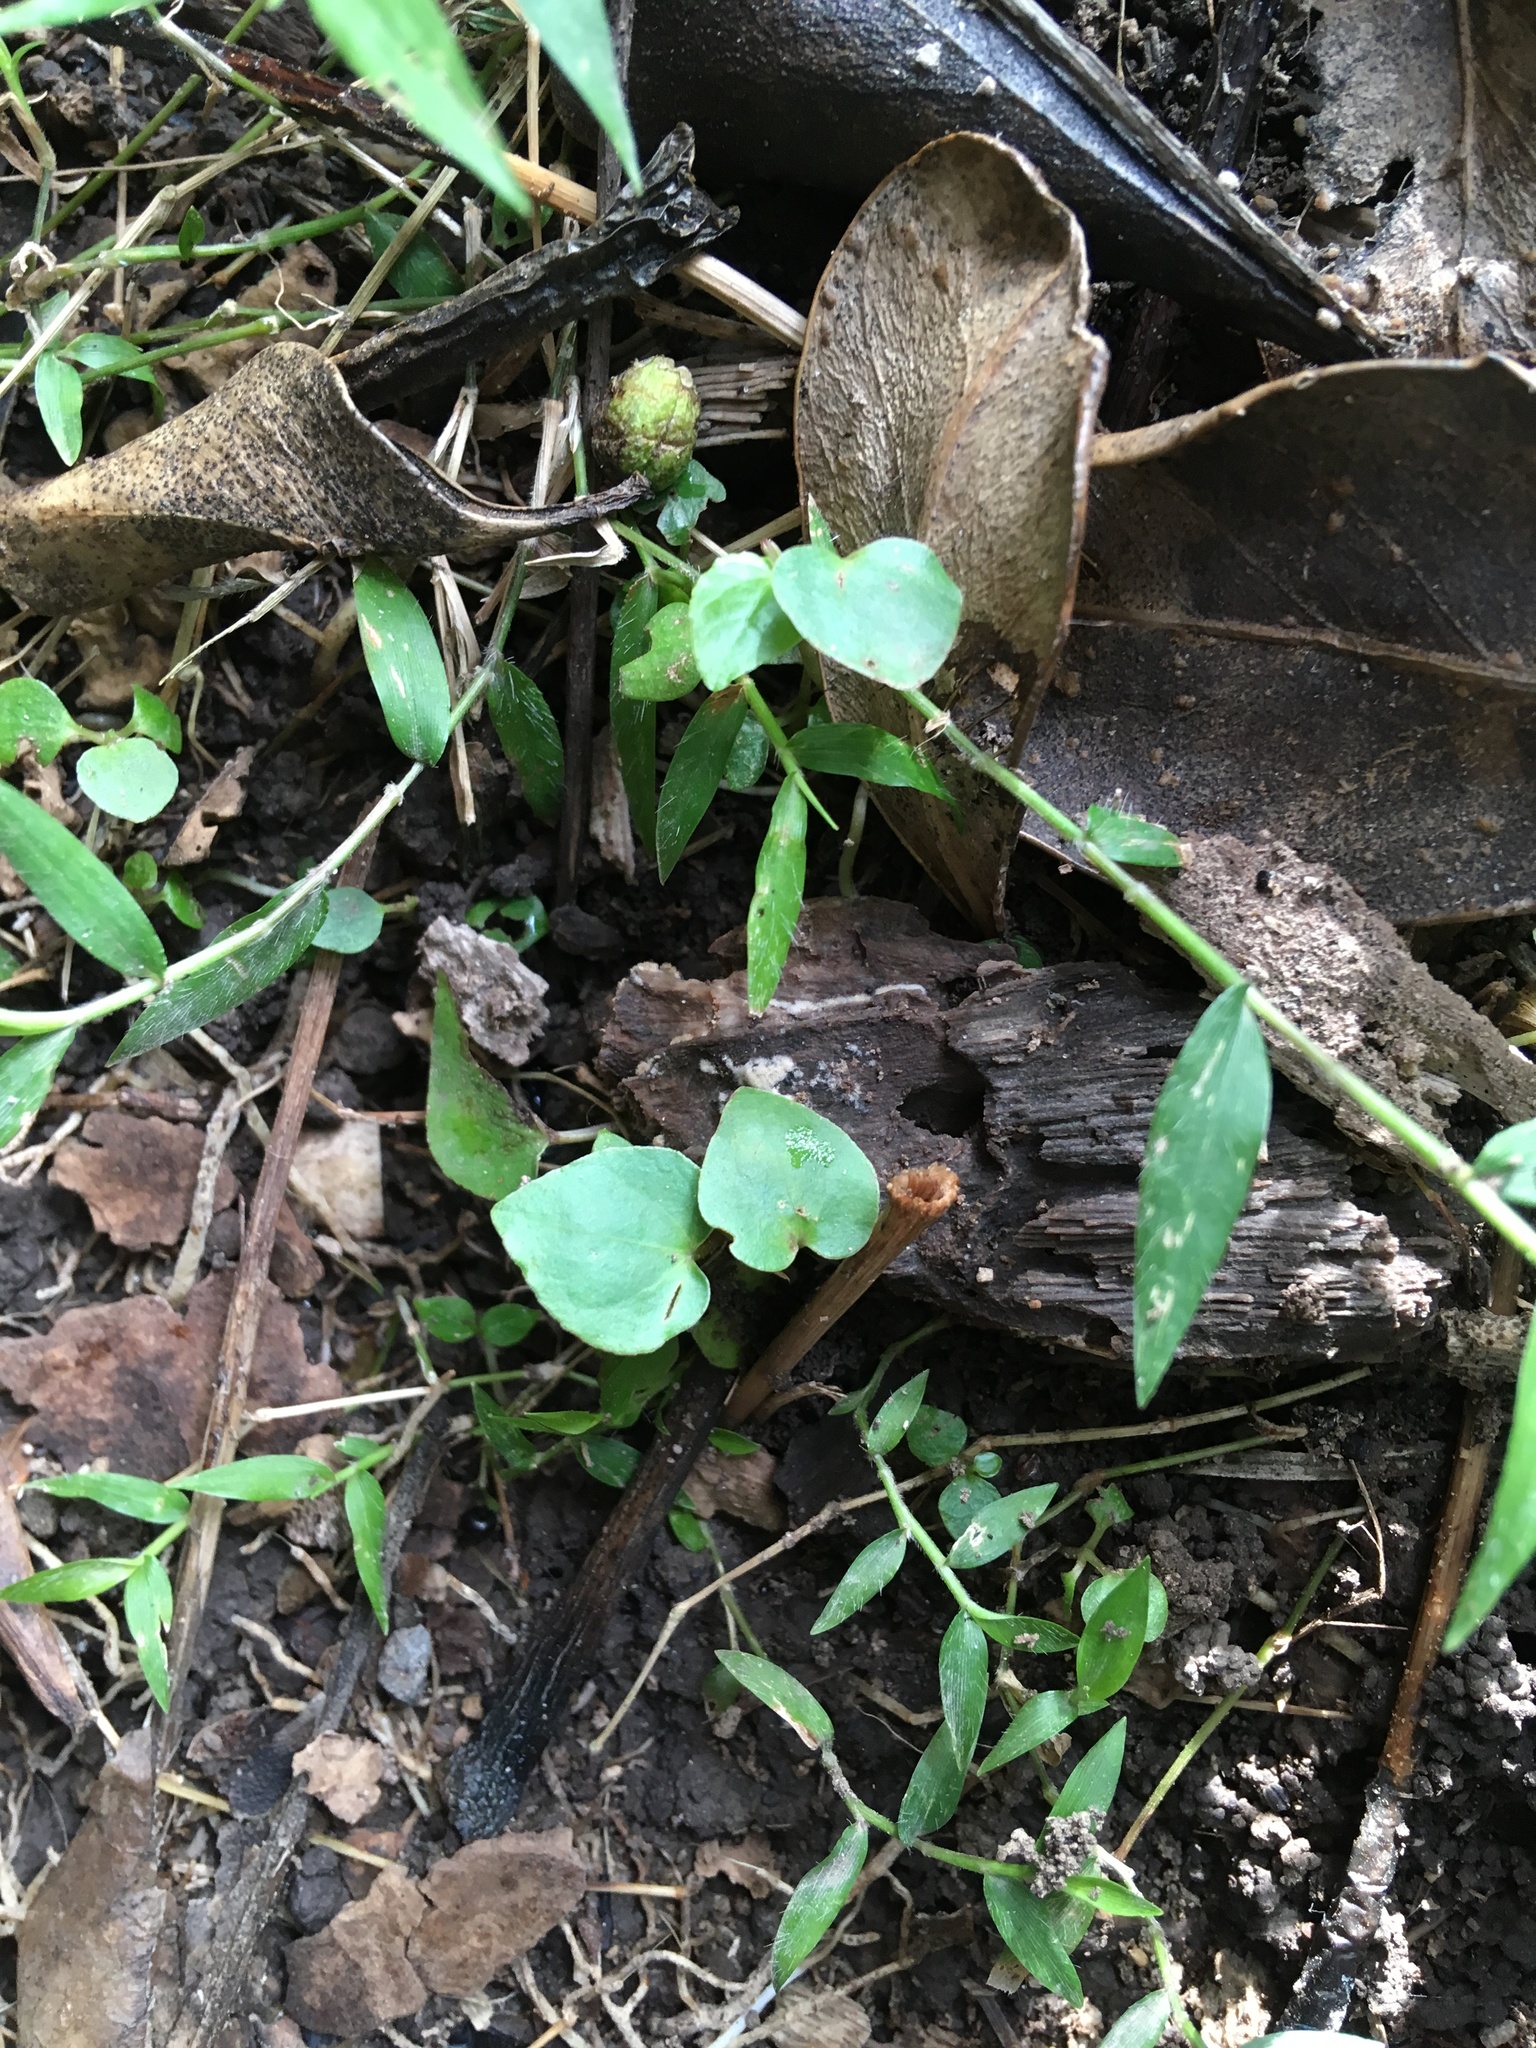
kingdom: Plantae
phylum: Tracheophyta
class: Magnoliopsida
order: Piperales
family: Piperaceae
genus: Macropiper
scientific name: Macropiper excelsum
